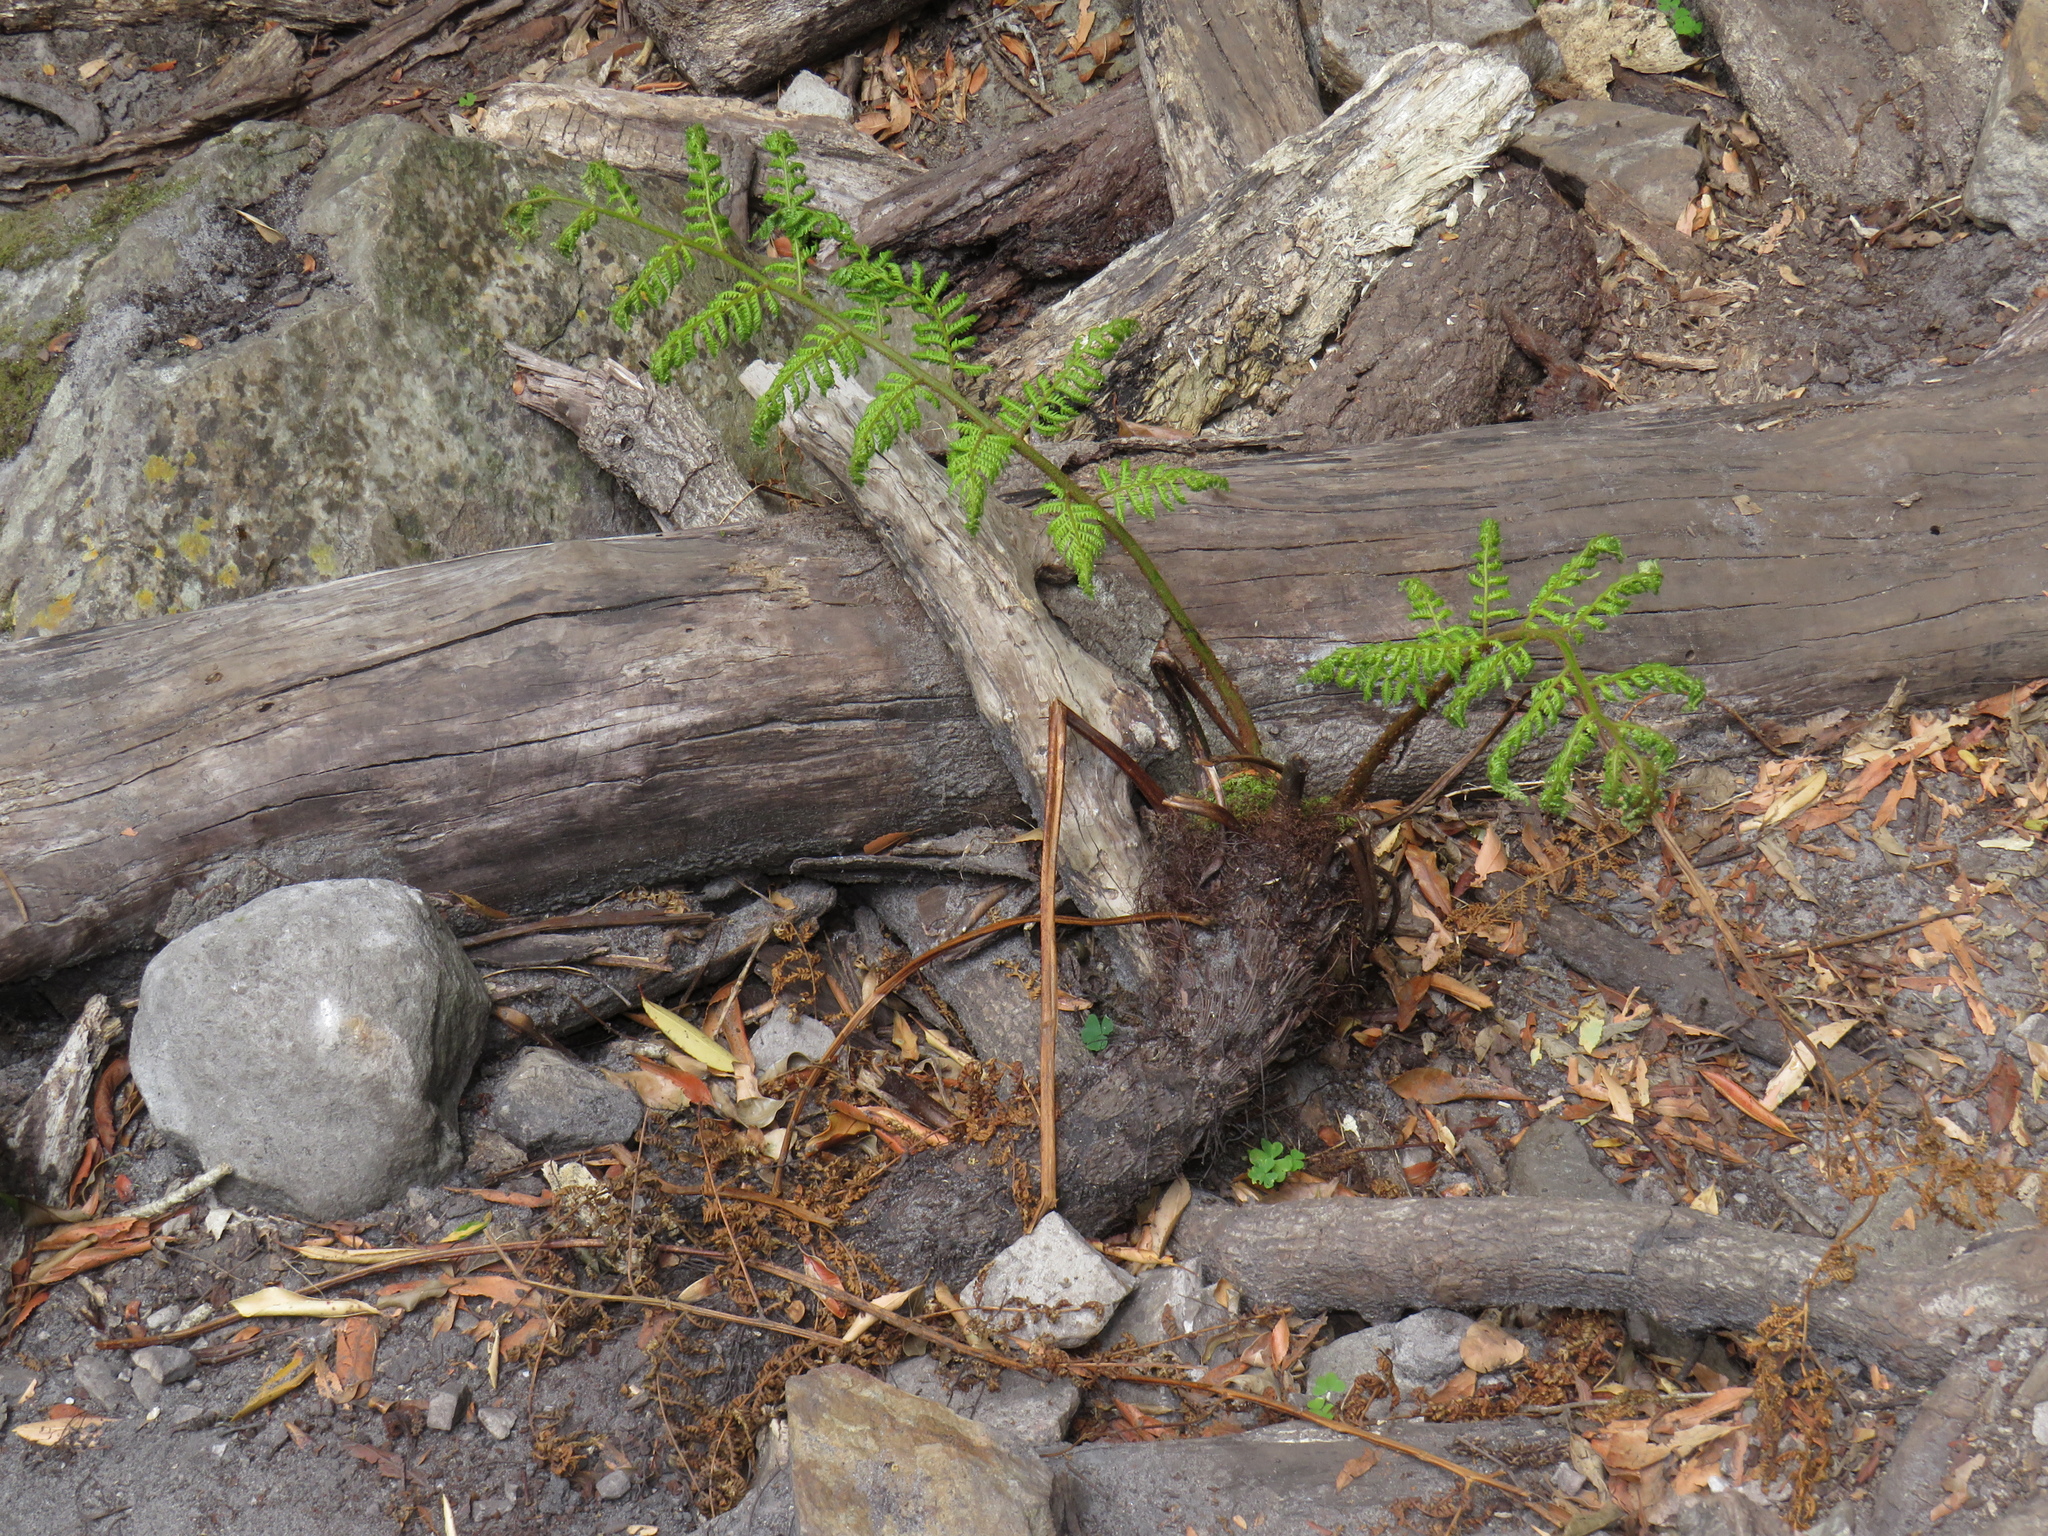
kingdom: Plantae
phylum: Tracheophyta
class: Polypodiopsida
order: Cyatheales
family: Cyatheaceae
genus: Gymnosphaera
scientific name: Gymnosphaera capensis
